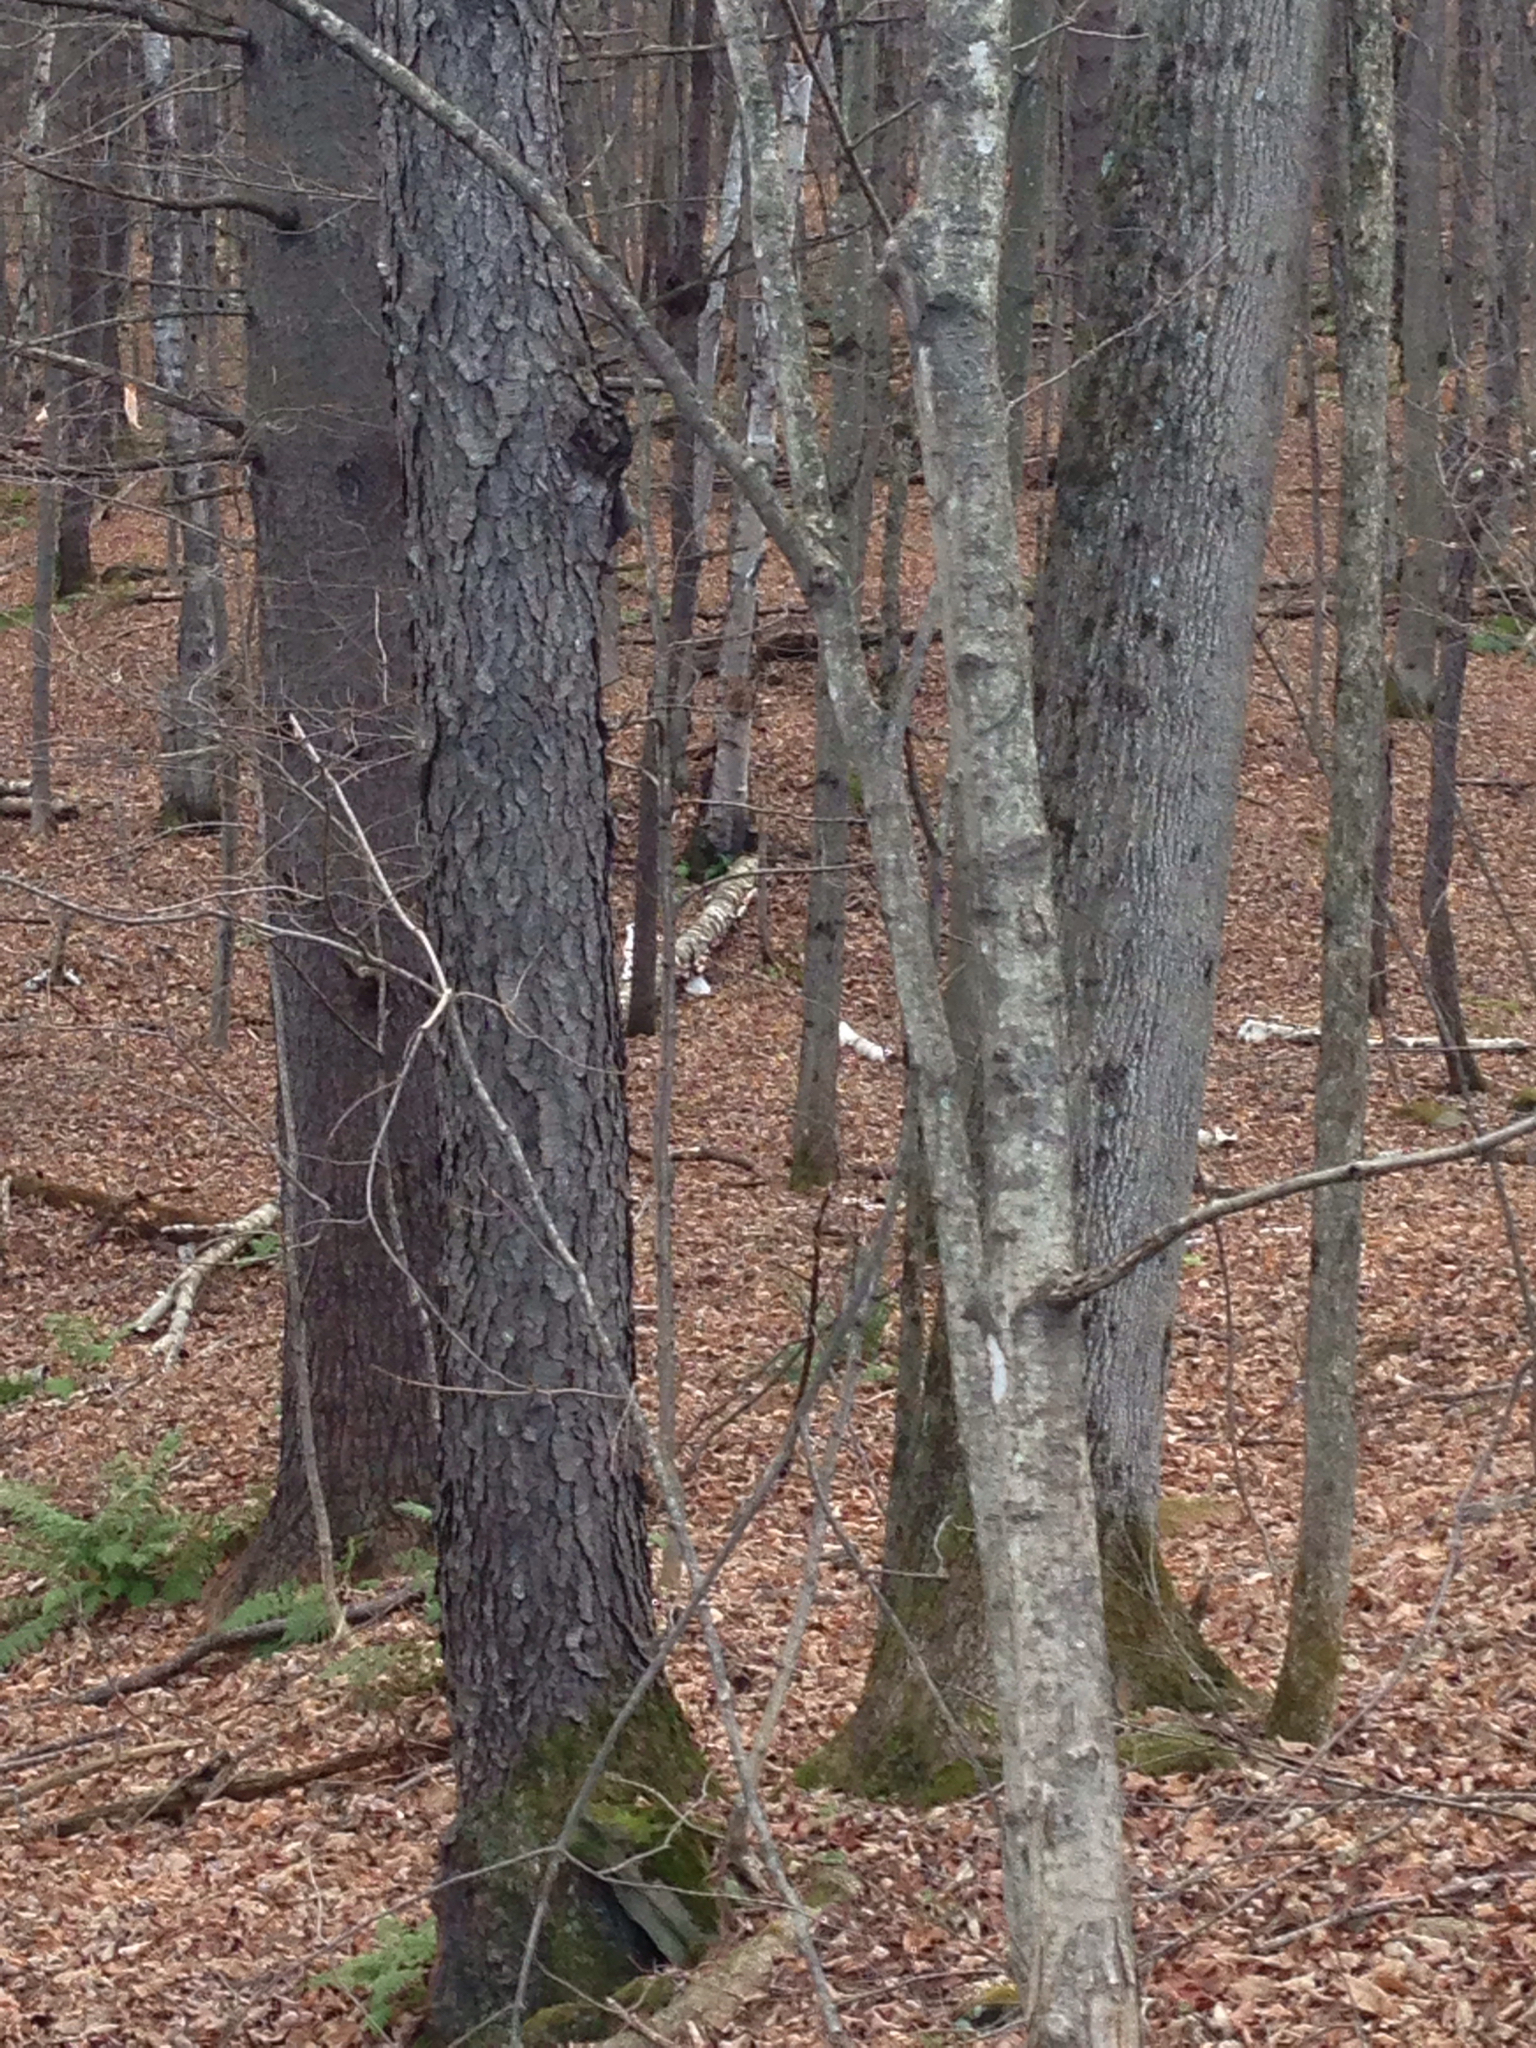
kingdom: Plantae
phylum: Tracheophyta
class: Magnoliopsida
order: Rosales
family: Rosaceae
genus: Prunus
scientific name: Prunus serotina
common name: Black cherry
